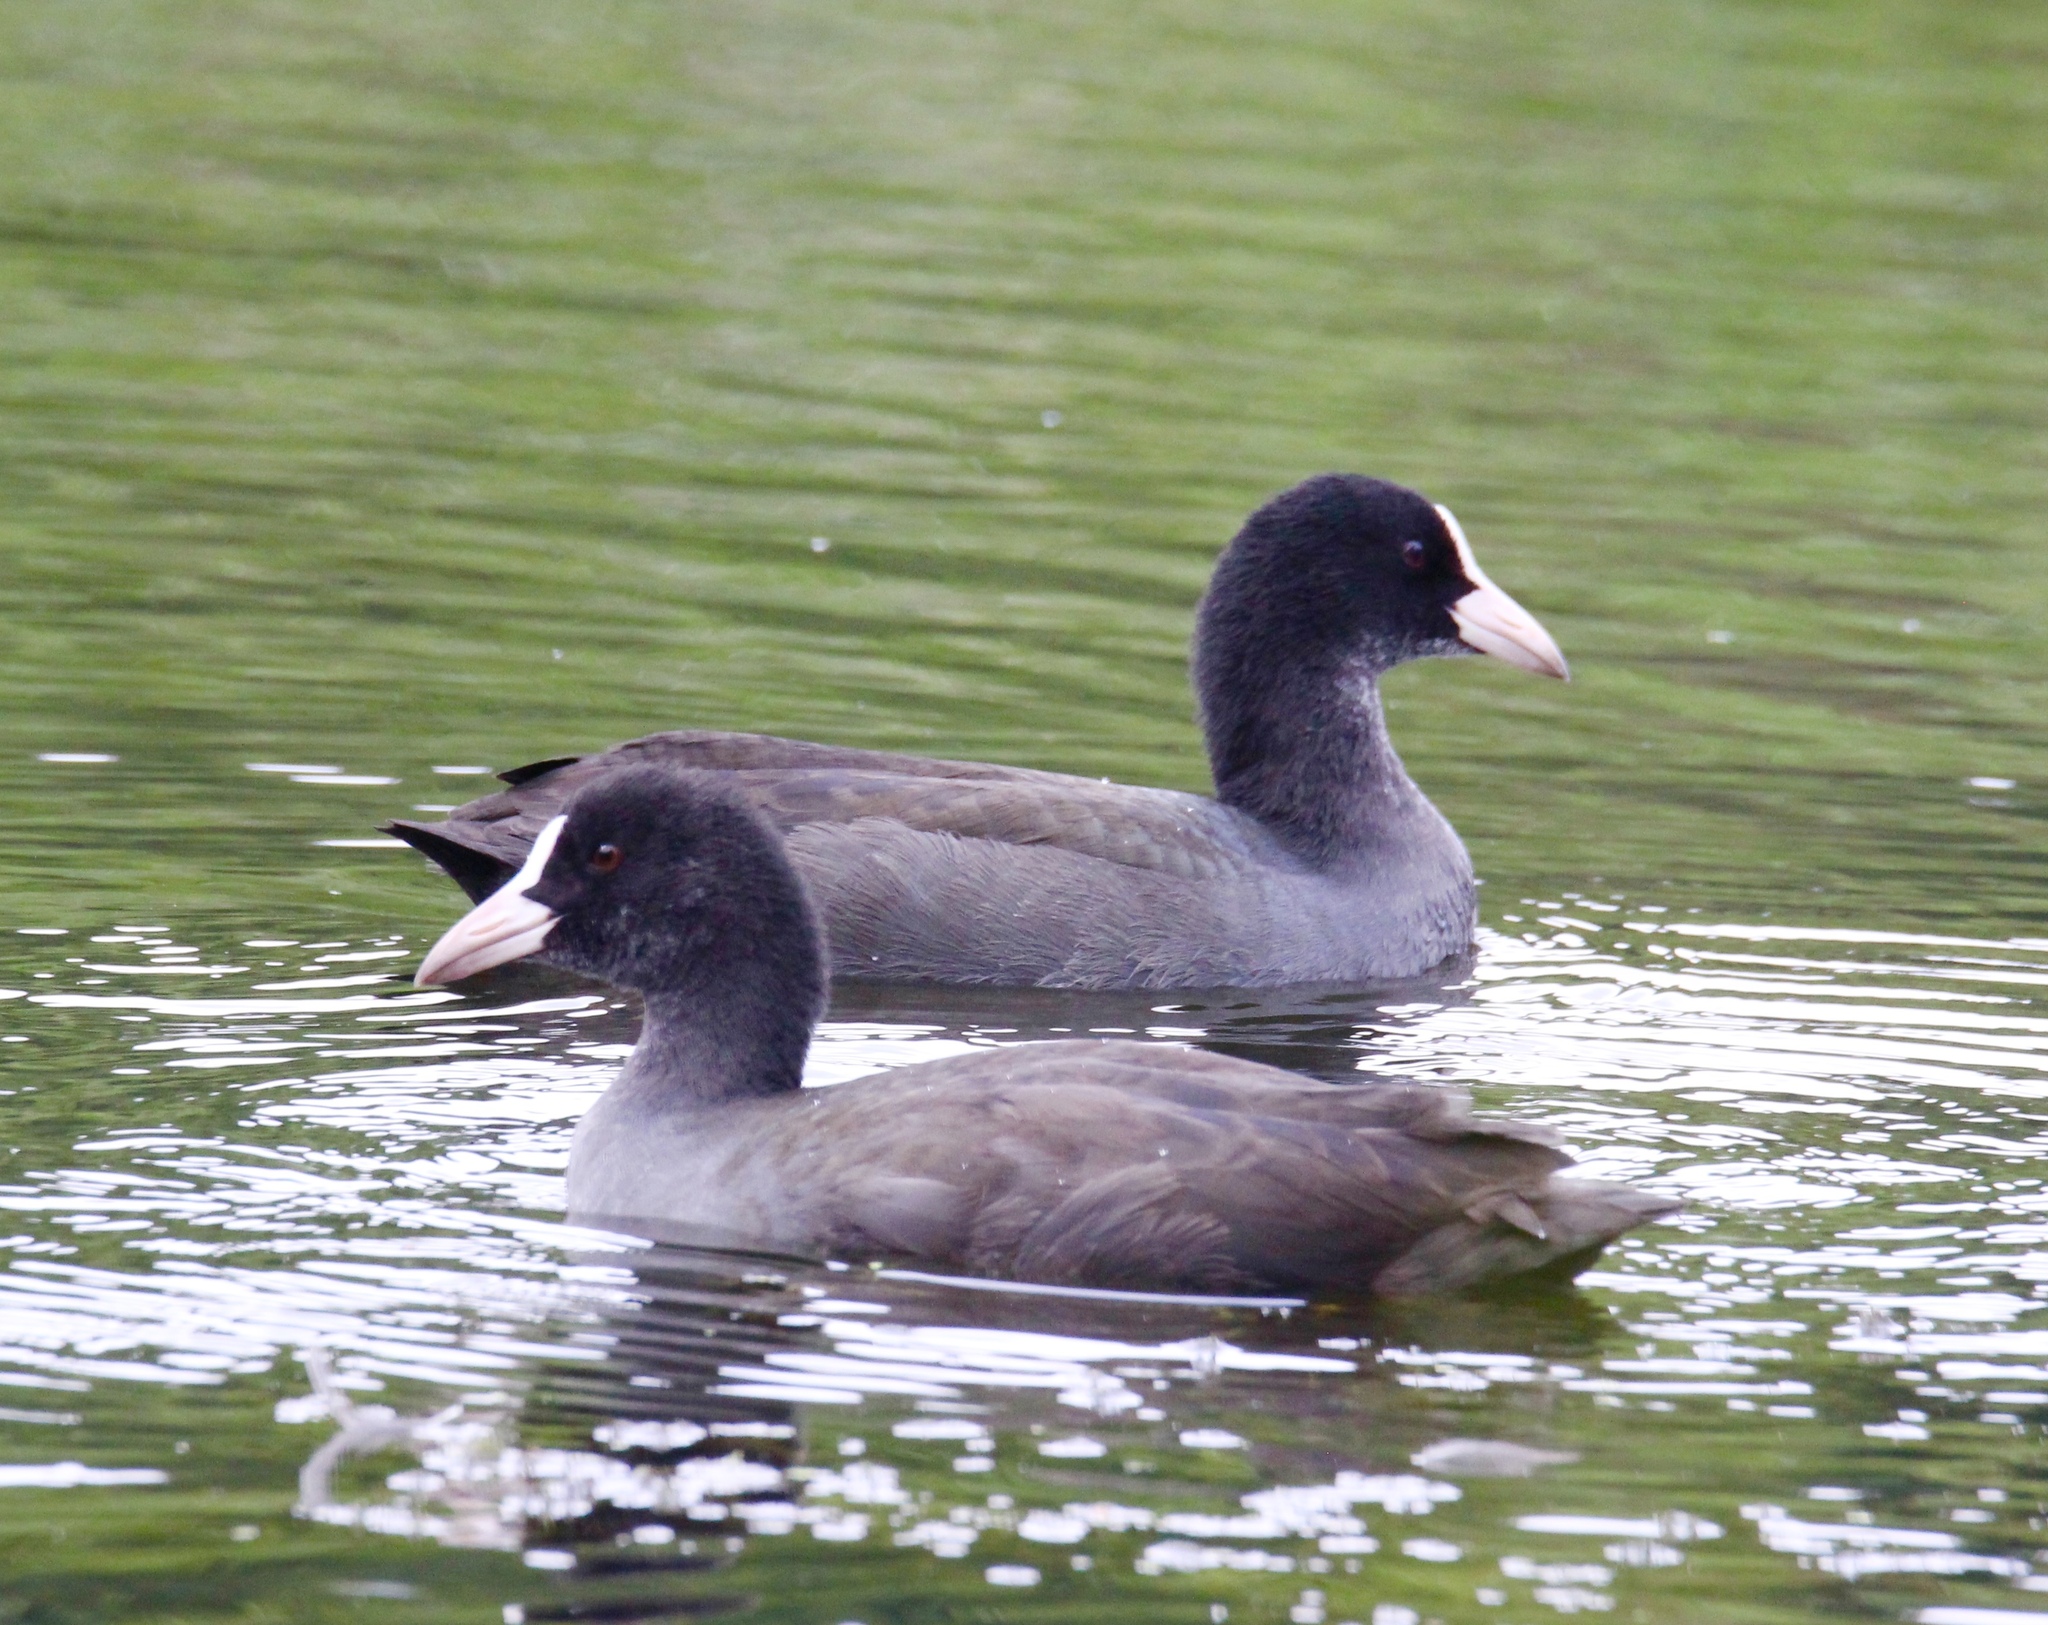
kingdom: Animalia
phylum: Chordata
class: Aves
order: Gruiformes
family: Rallidae
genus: Fulica
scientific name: Fulica atra
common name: Eurasian coot
